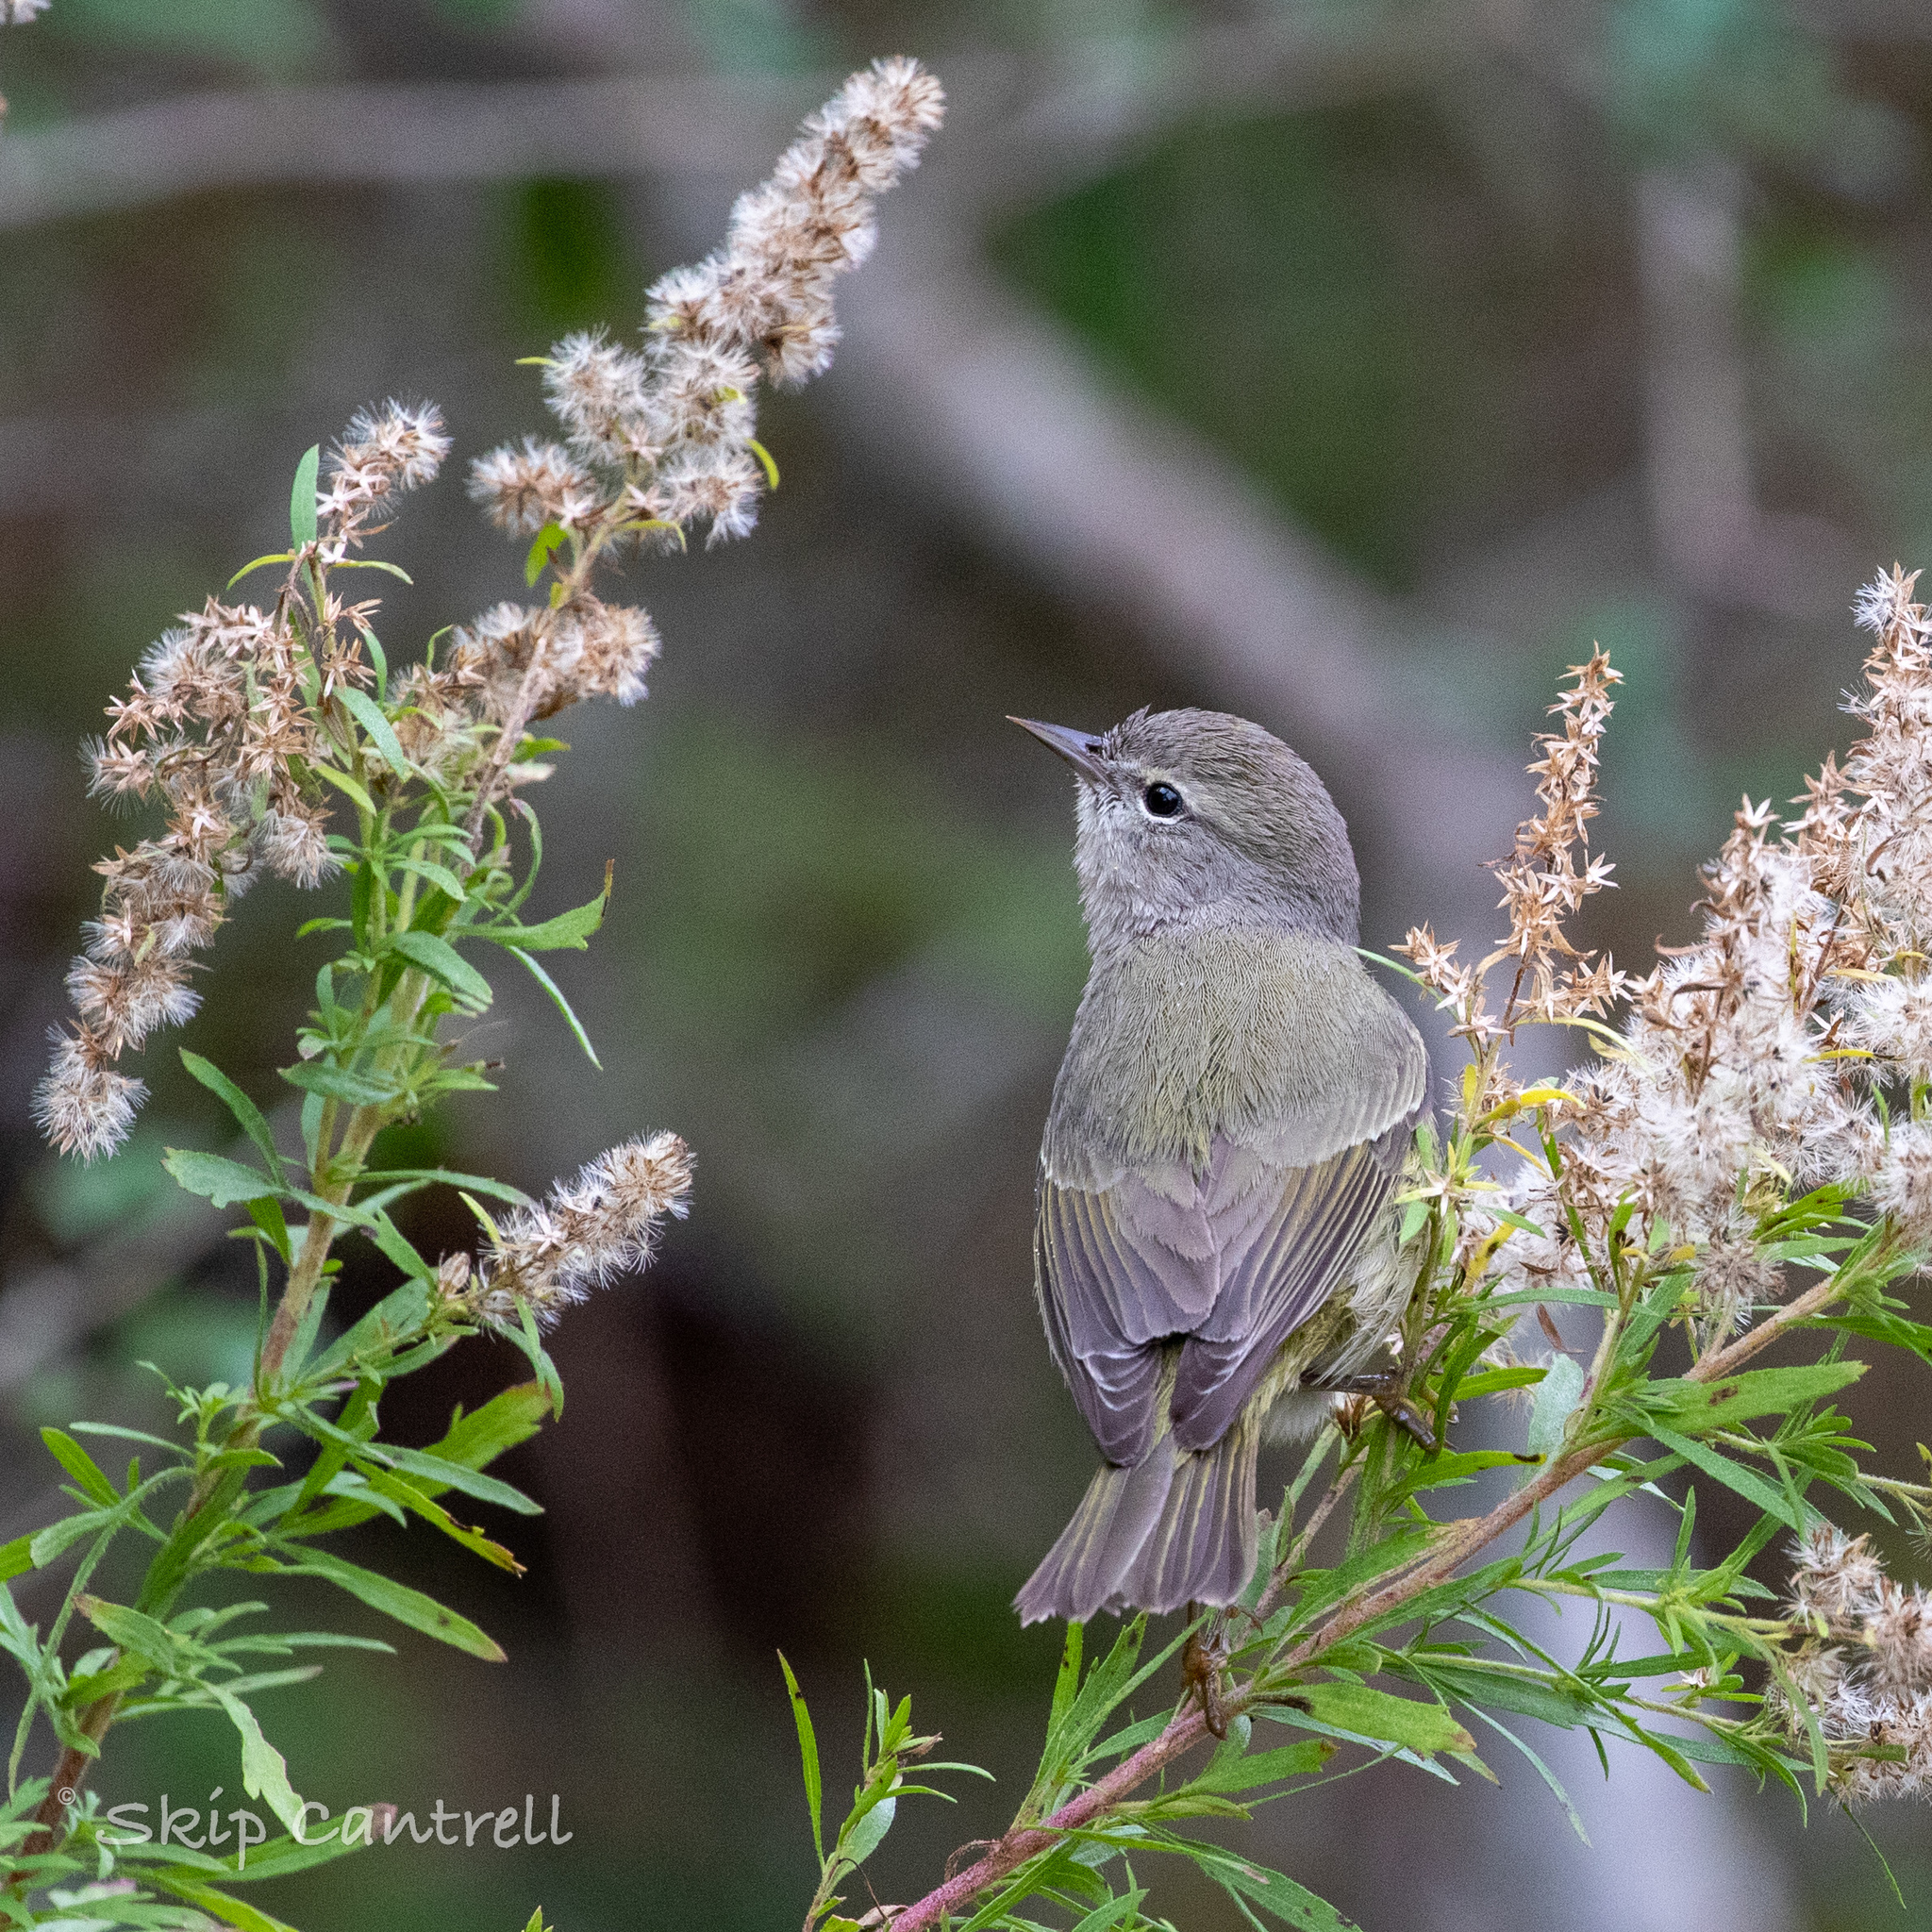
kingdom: Animalia
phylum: Chordata
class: Aves
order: Passeriformes
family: Parulidae
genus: Leiothlypis
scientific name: Leiothlypis celata
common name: Orange-crowned warbler
